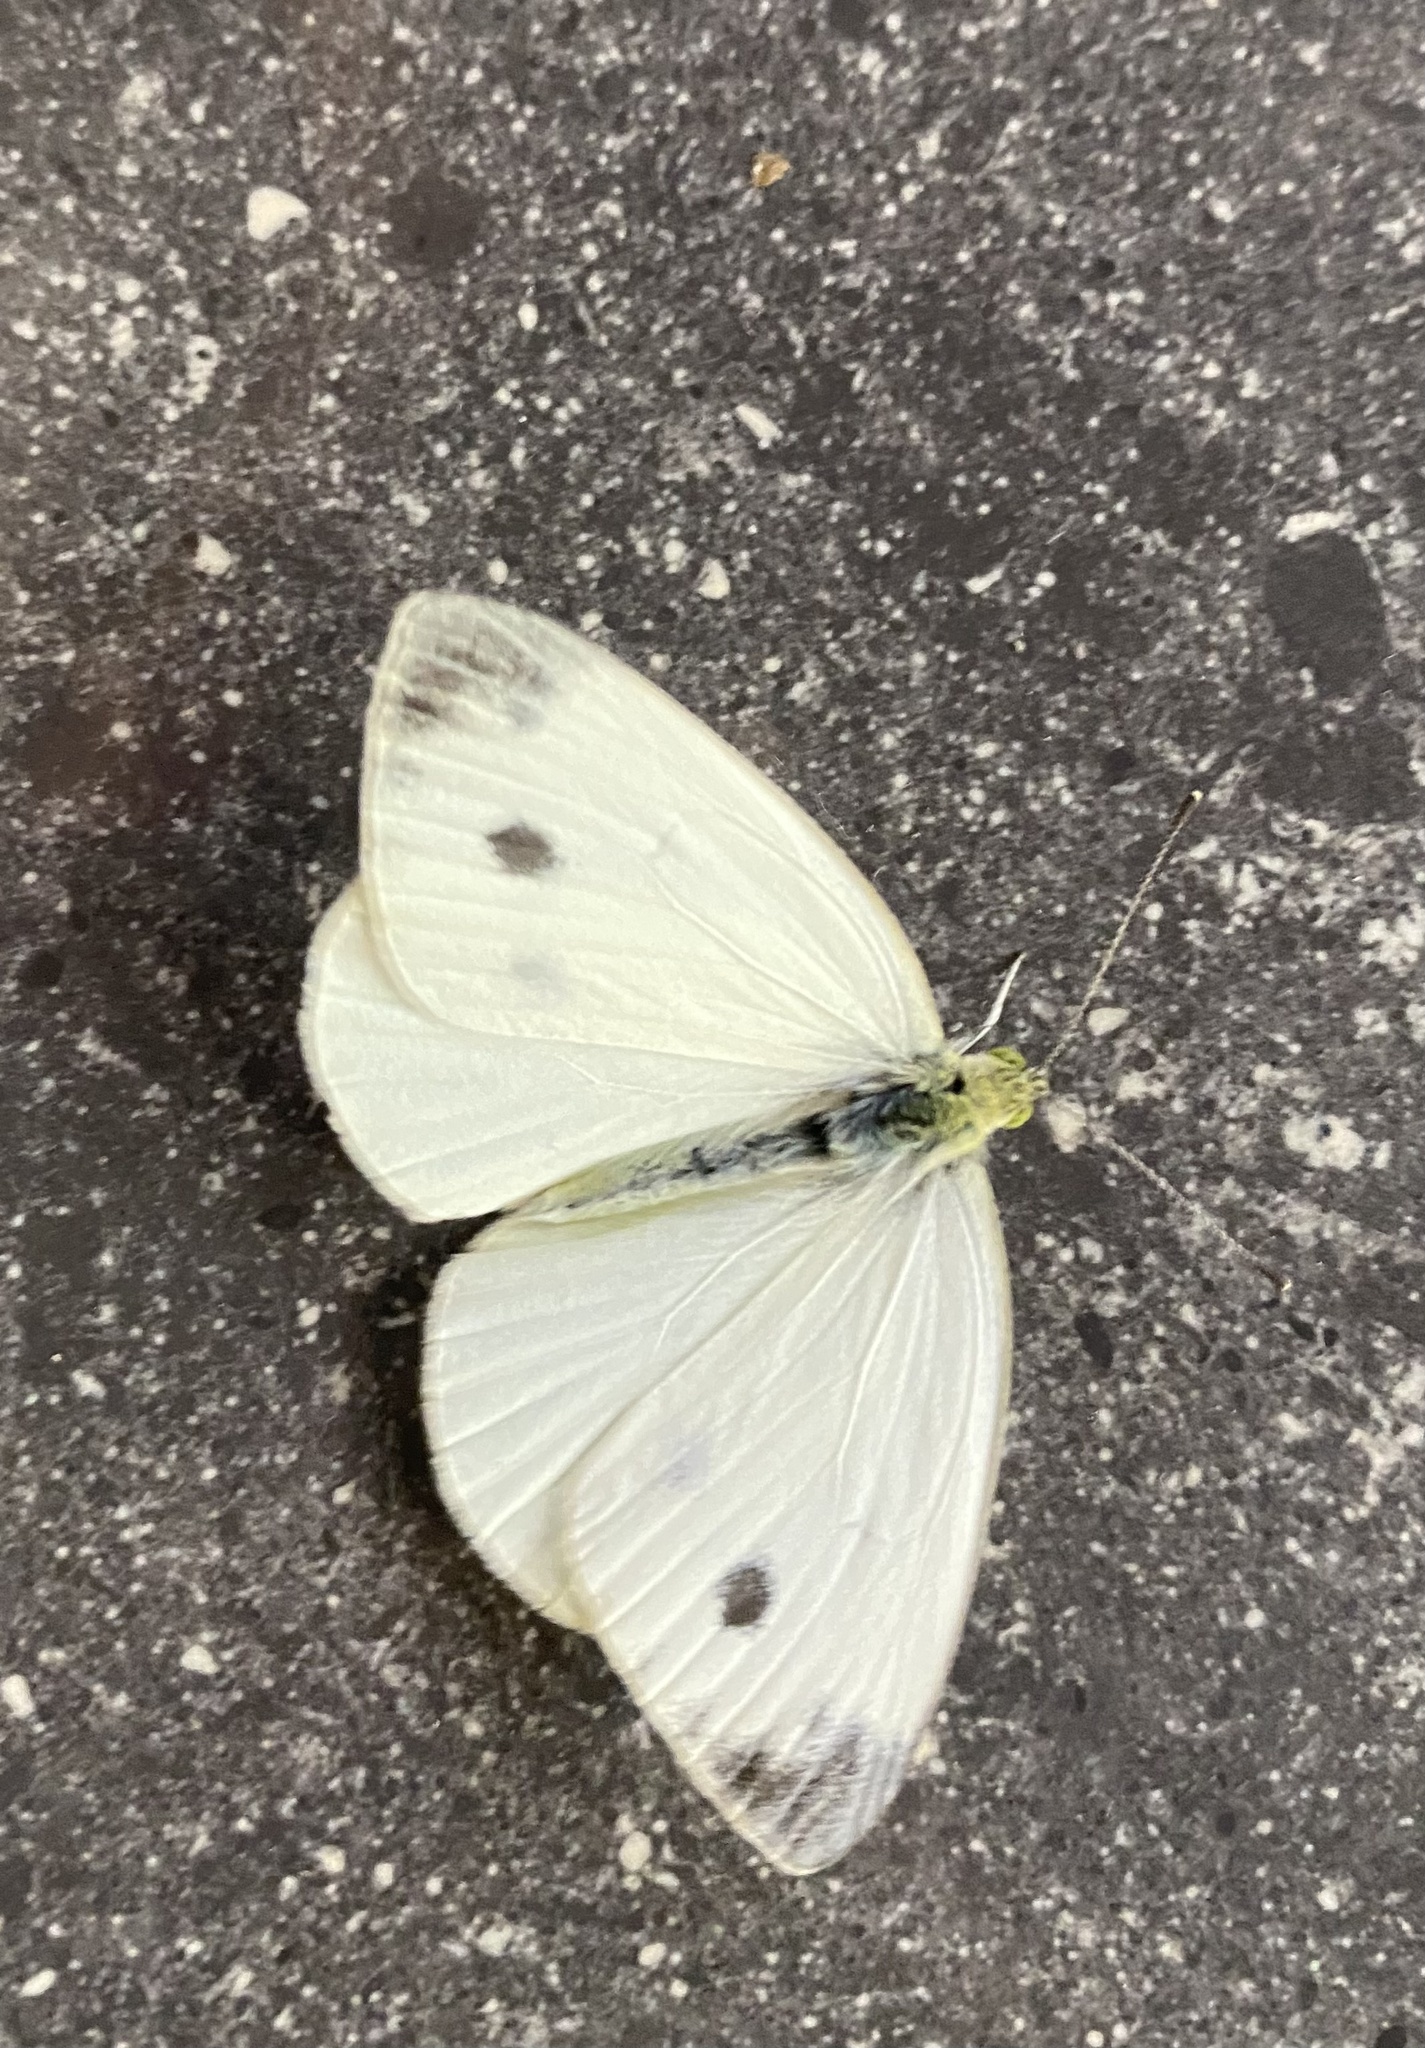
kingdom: Animalia
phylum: Arthropoda
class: Insecta
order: Lepidoptera
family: Pieridae
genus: Pieris
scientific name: Pieris rapae
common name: Small white
